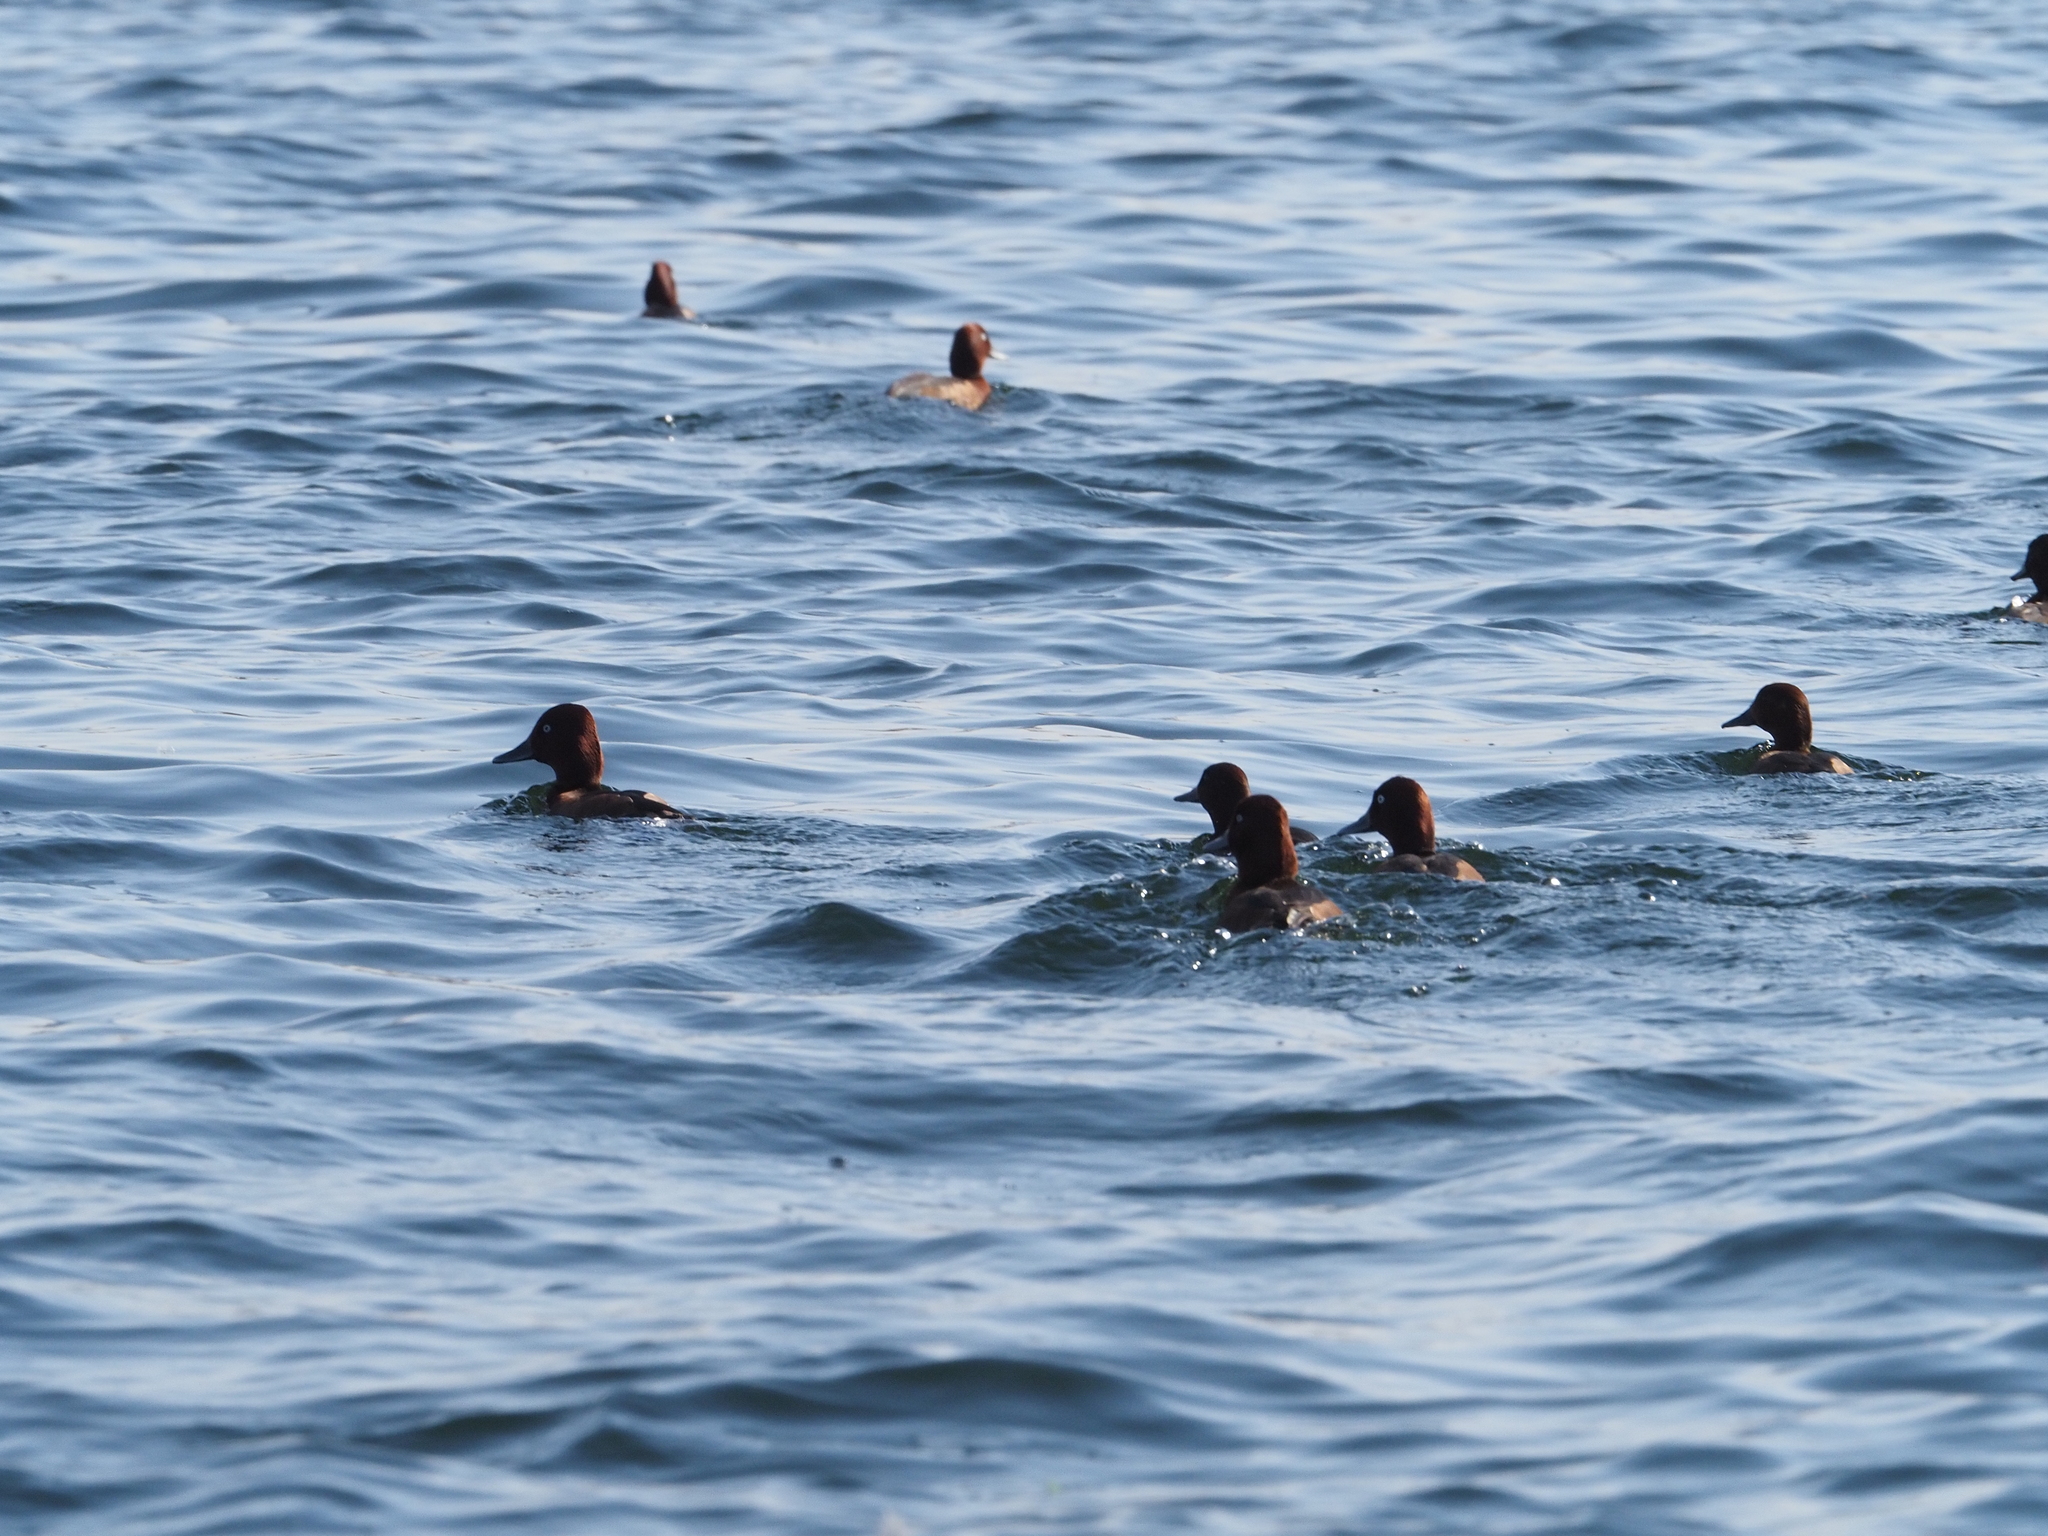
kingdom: Animalia
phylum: Chordata
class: Aves
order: Anseriformes
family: Anatidae
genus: Aythya
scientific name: Aythya nyroca
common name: Ferruginous duck
